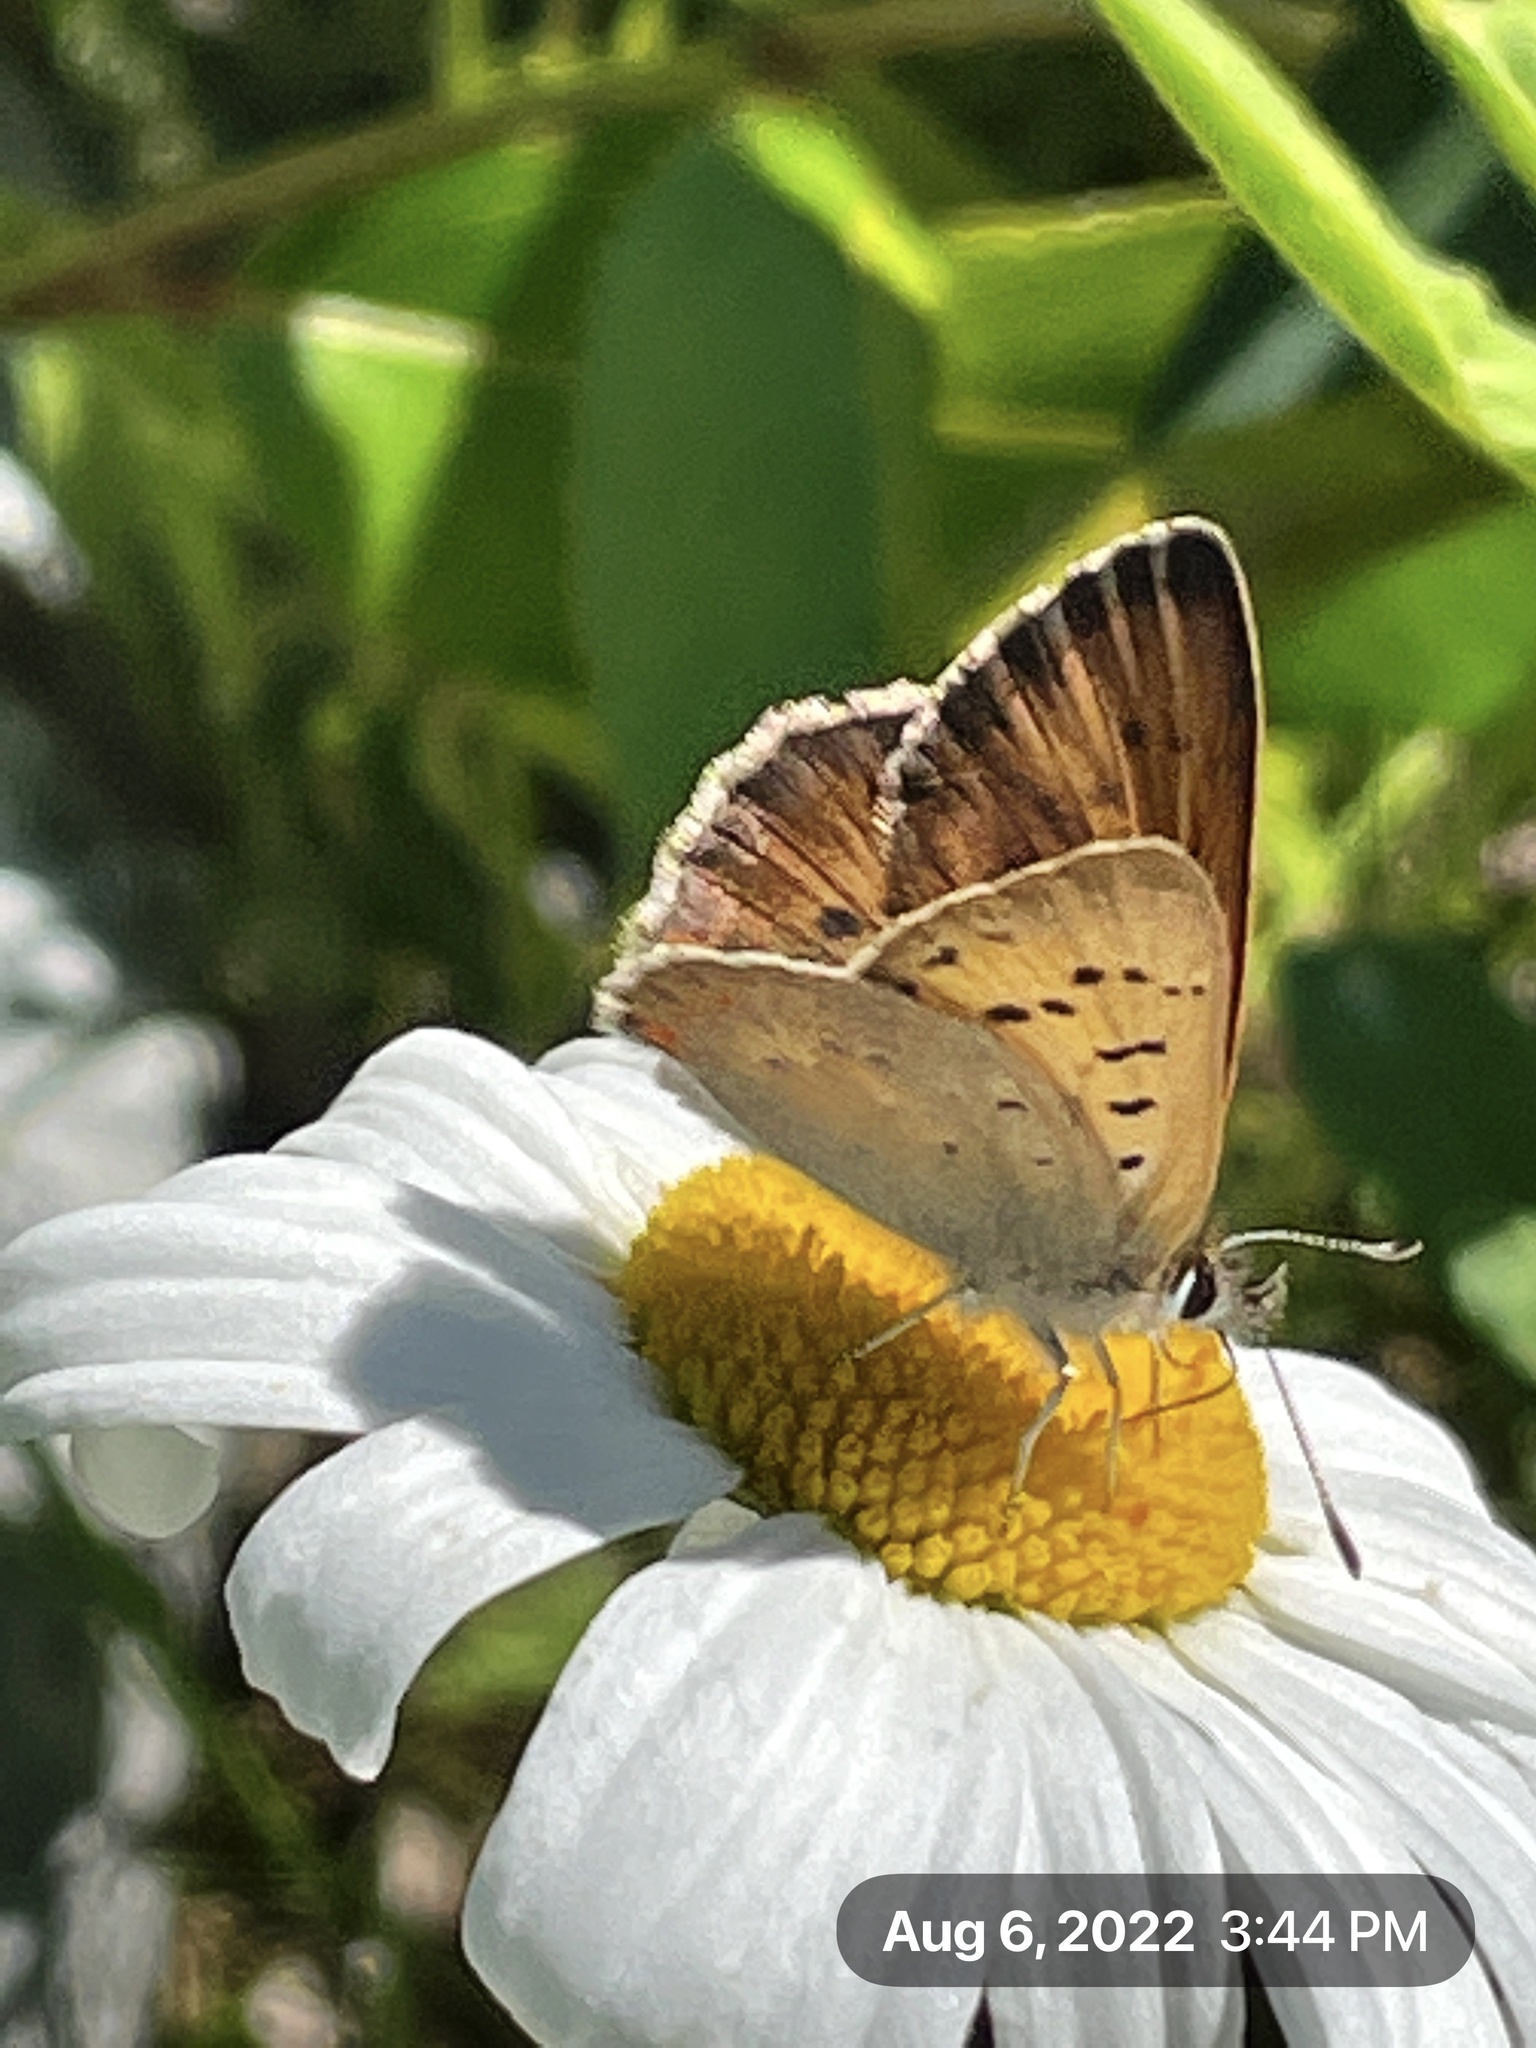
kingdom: Animalia
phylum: Arthropoda
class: Insecta
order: Lepidoptera
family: Lycaenidae
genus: Tharsalea
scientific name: Tharsalea helloides
